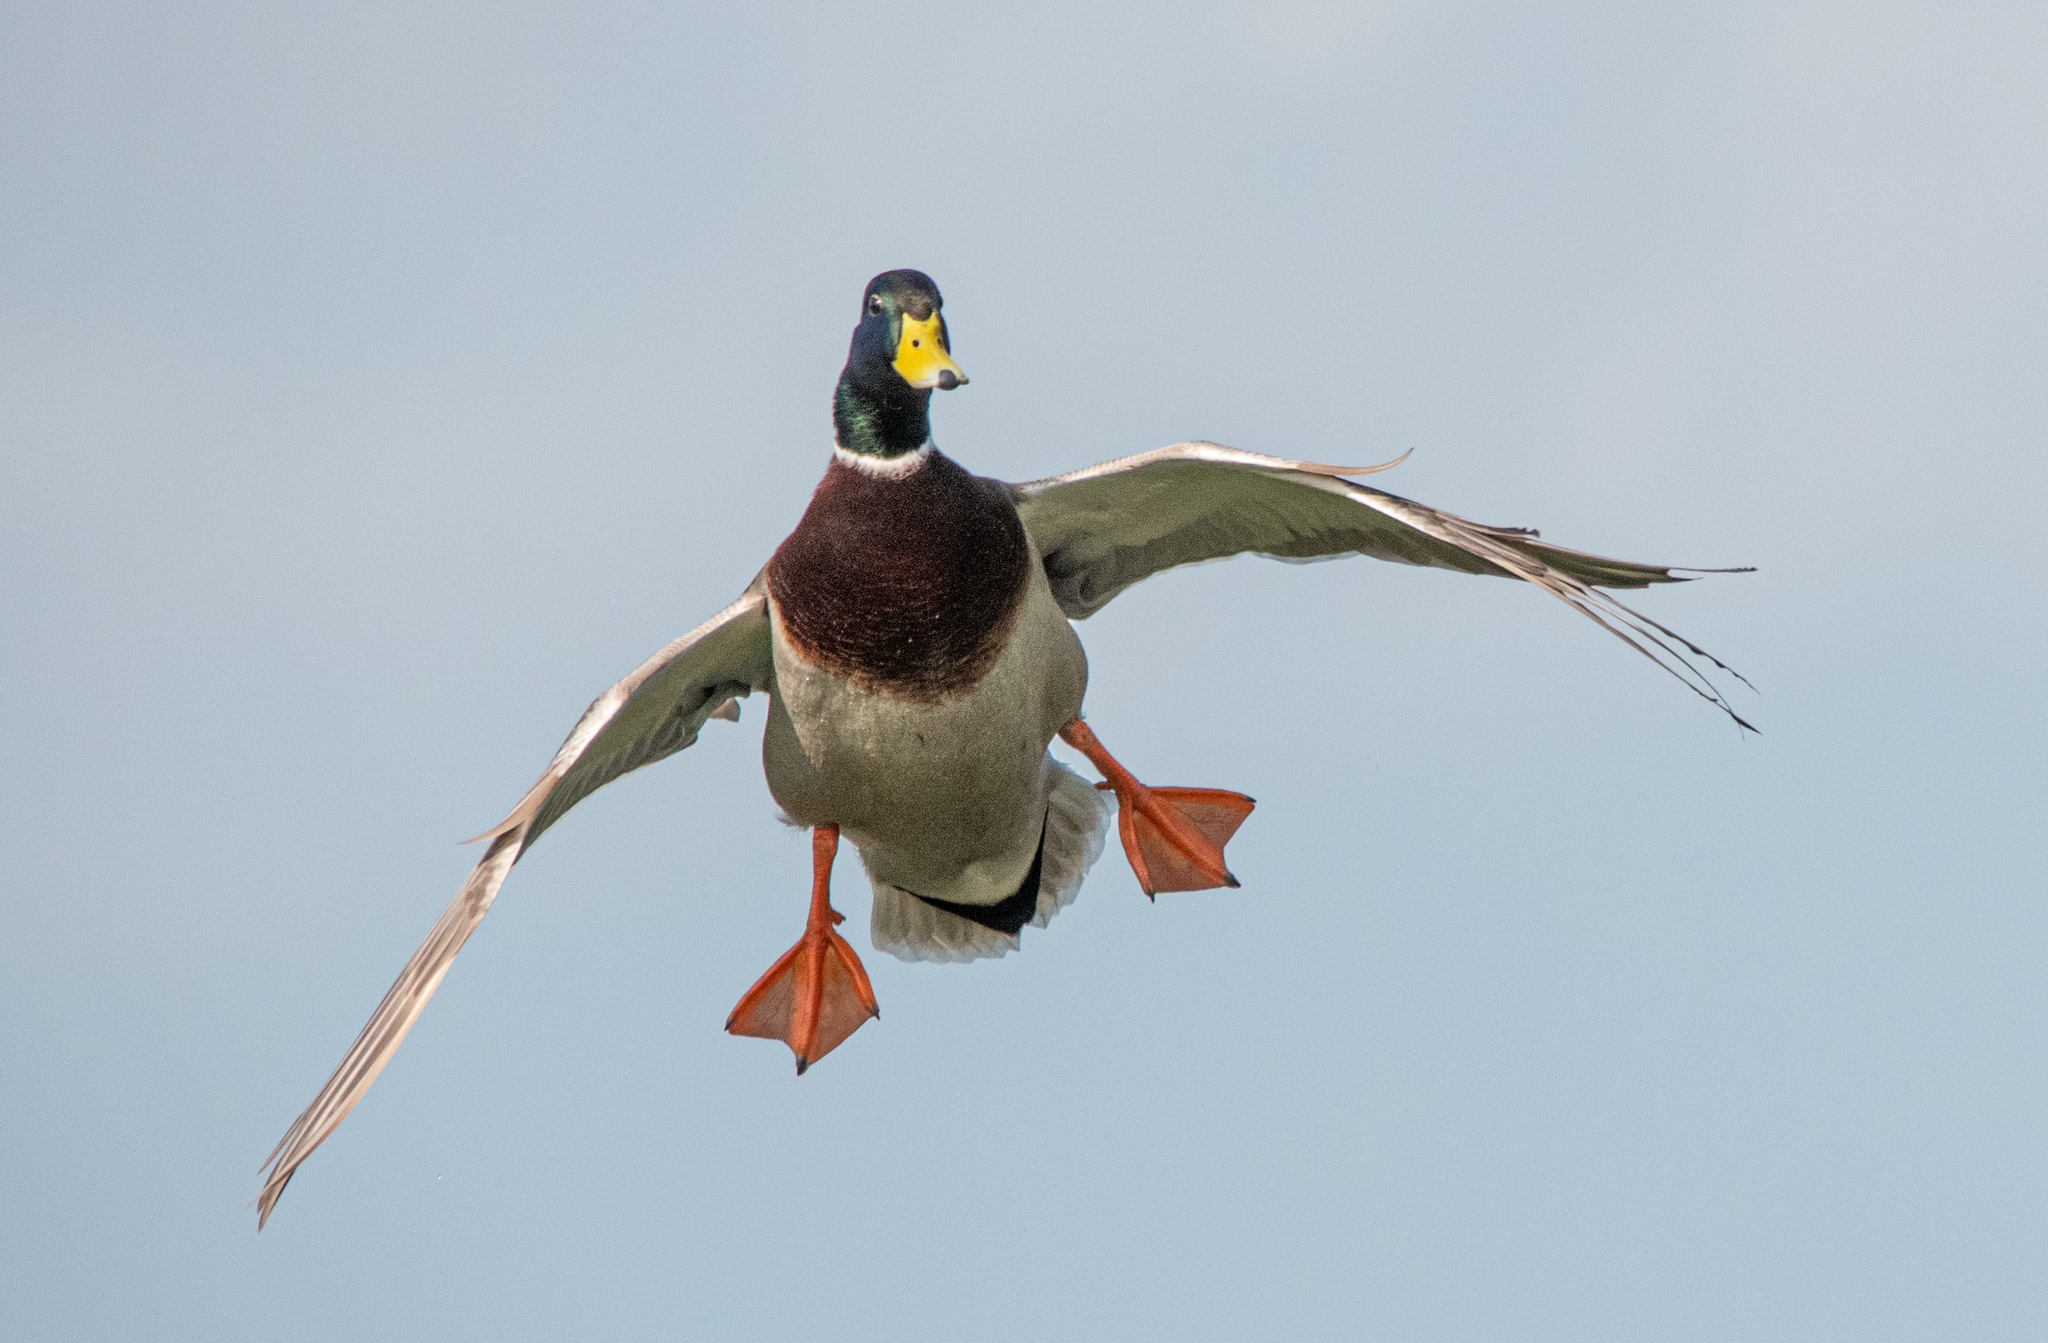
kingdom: Animalia
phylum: Chordata
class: Aves
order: Anseriformes
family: Anatidae
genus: Anas
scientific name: Anas platyrhynchos
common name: Mallard
